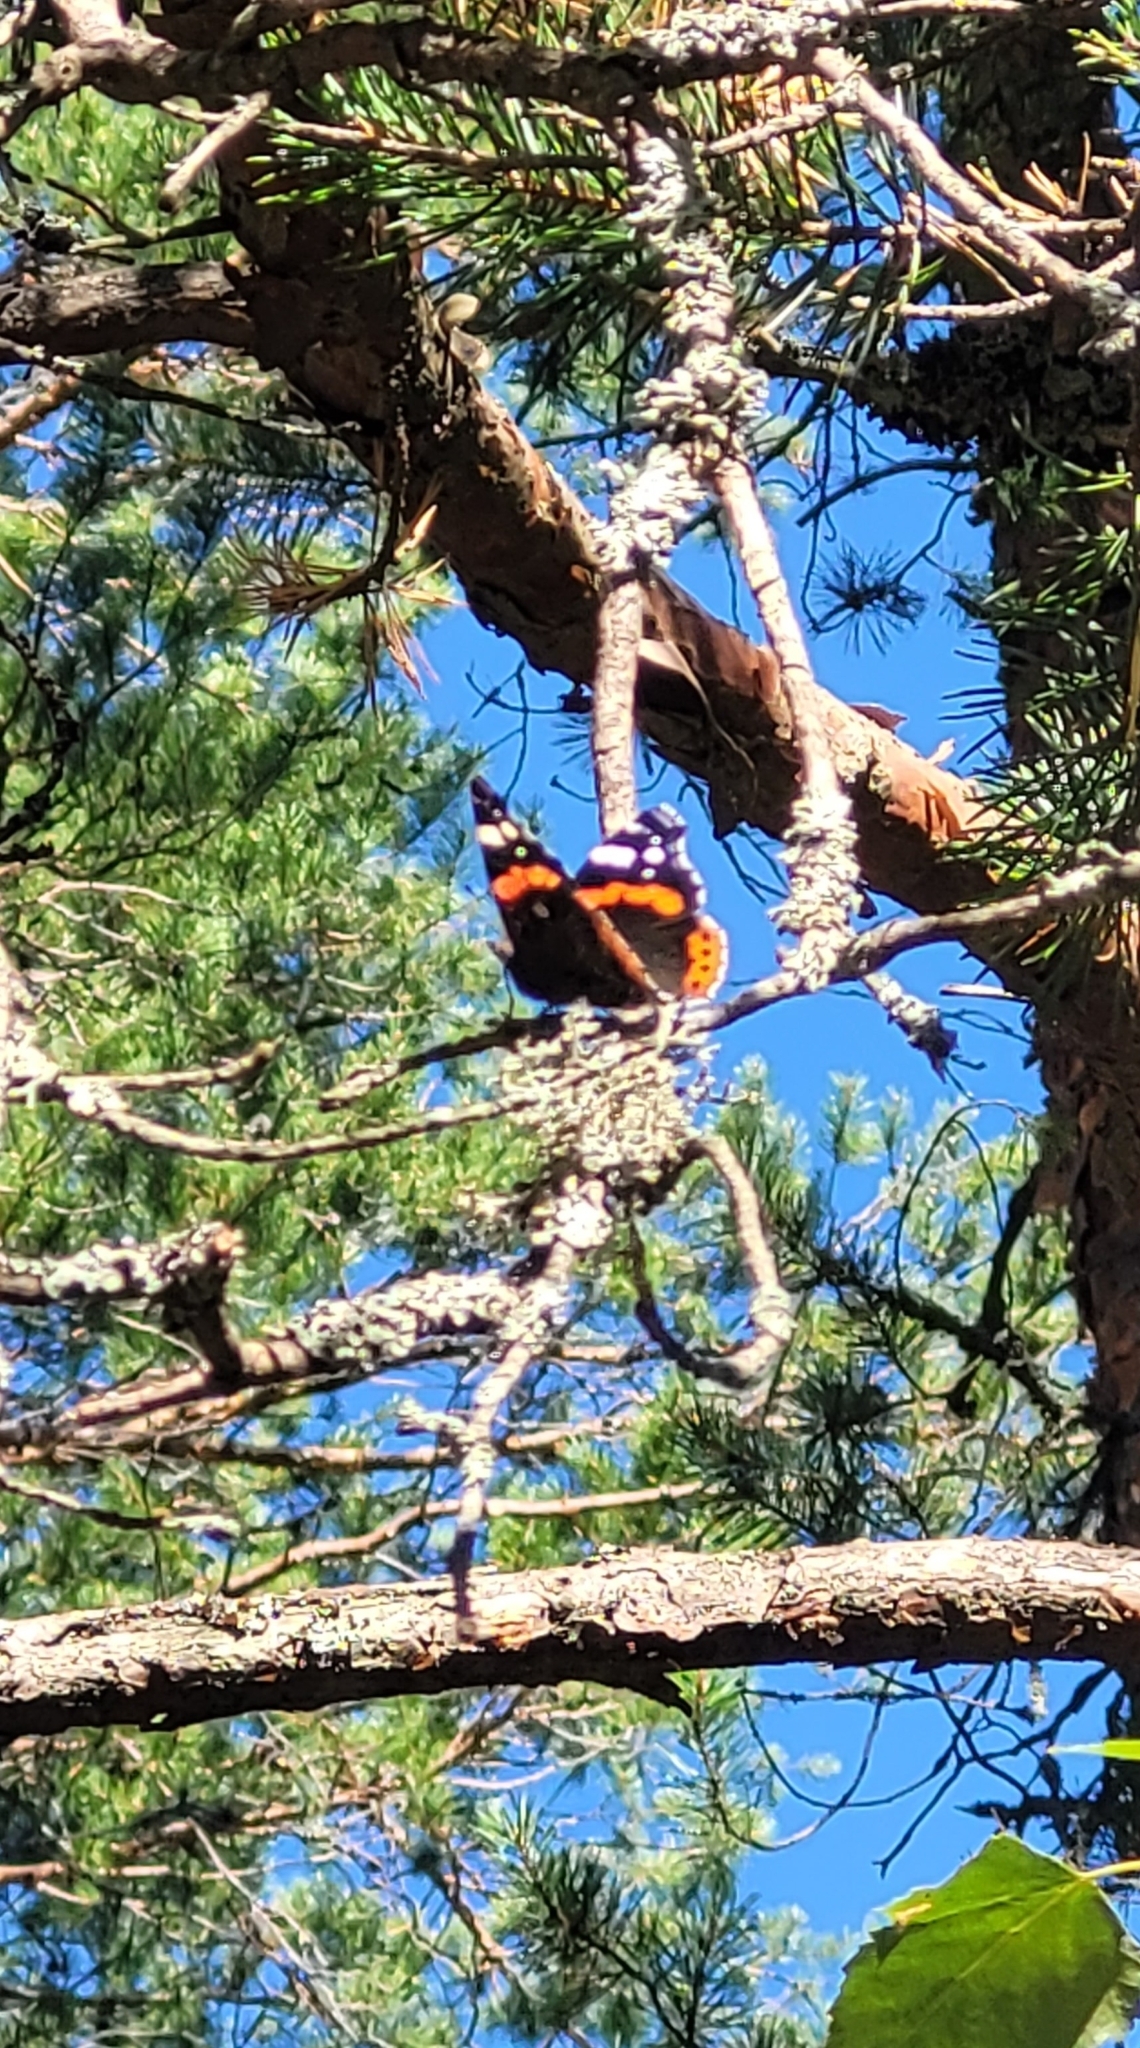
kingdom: Animalia
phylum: Arthropoda
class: Insecta
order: Lepidoptera
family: Nymphalidae
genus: Vanessa
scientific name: Vanessa atalanta
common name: Red admiral
